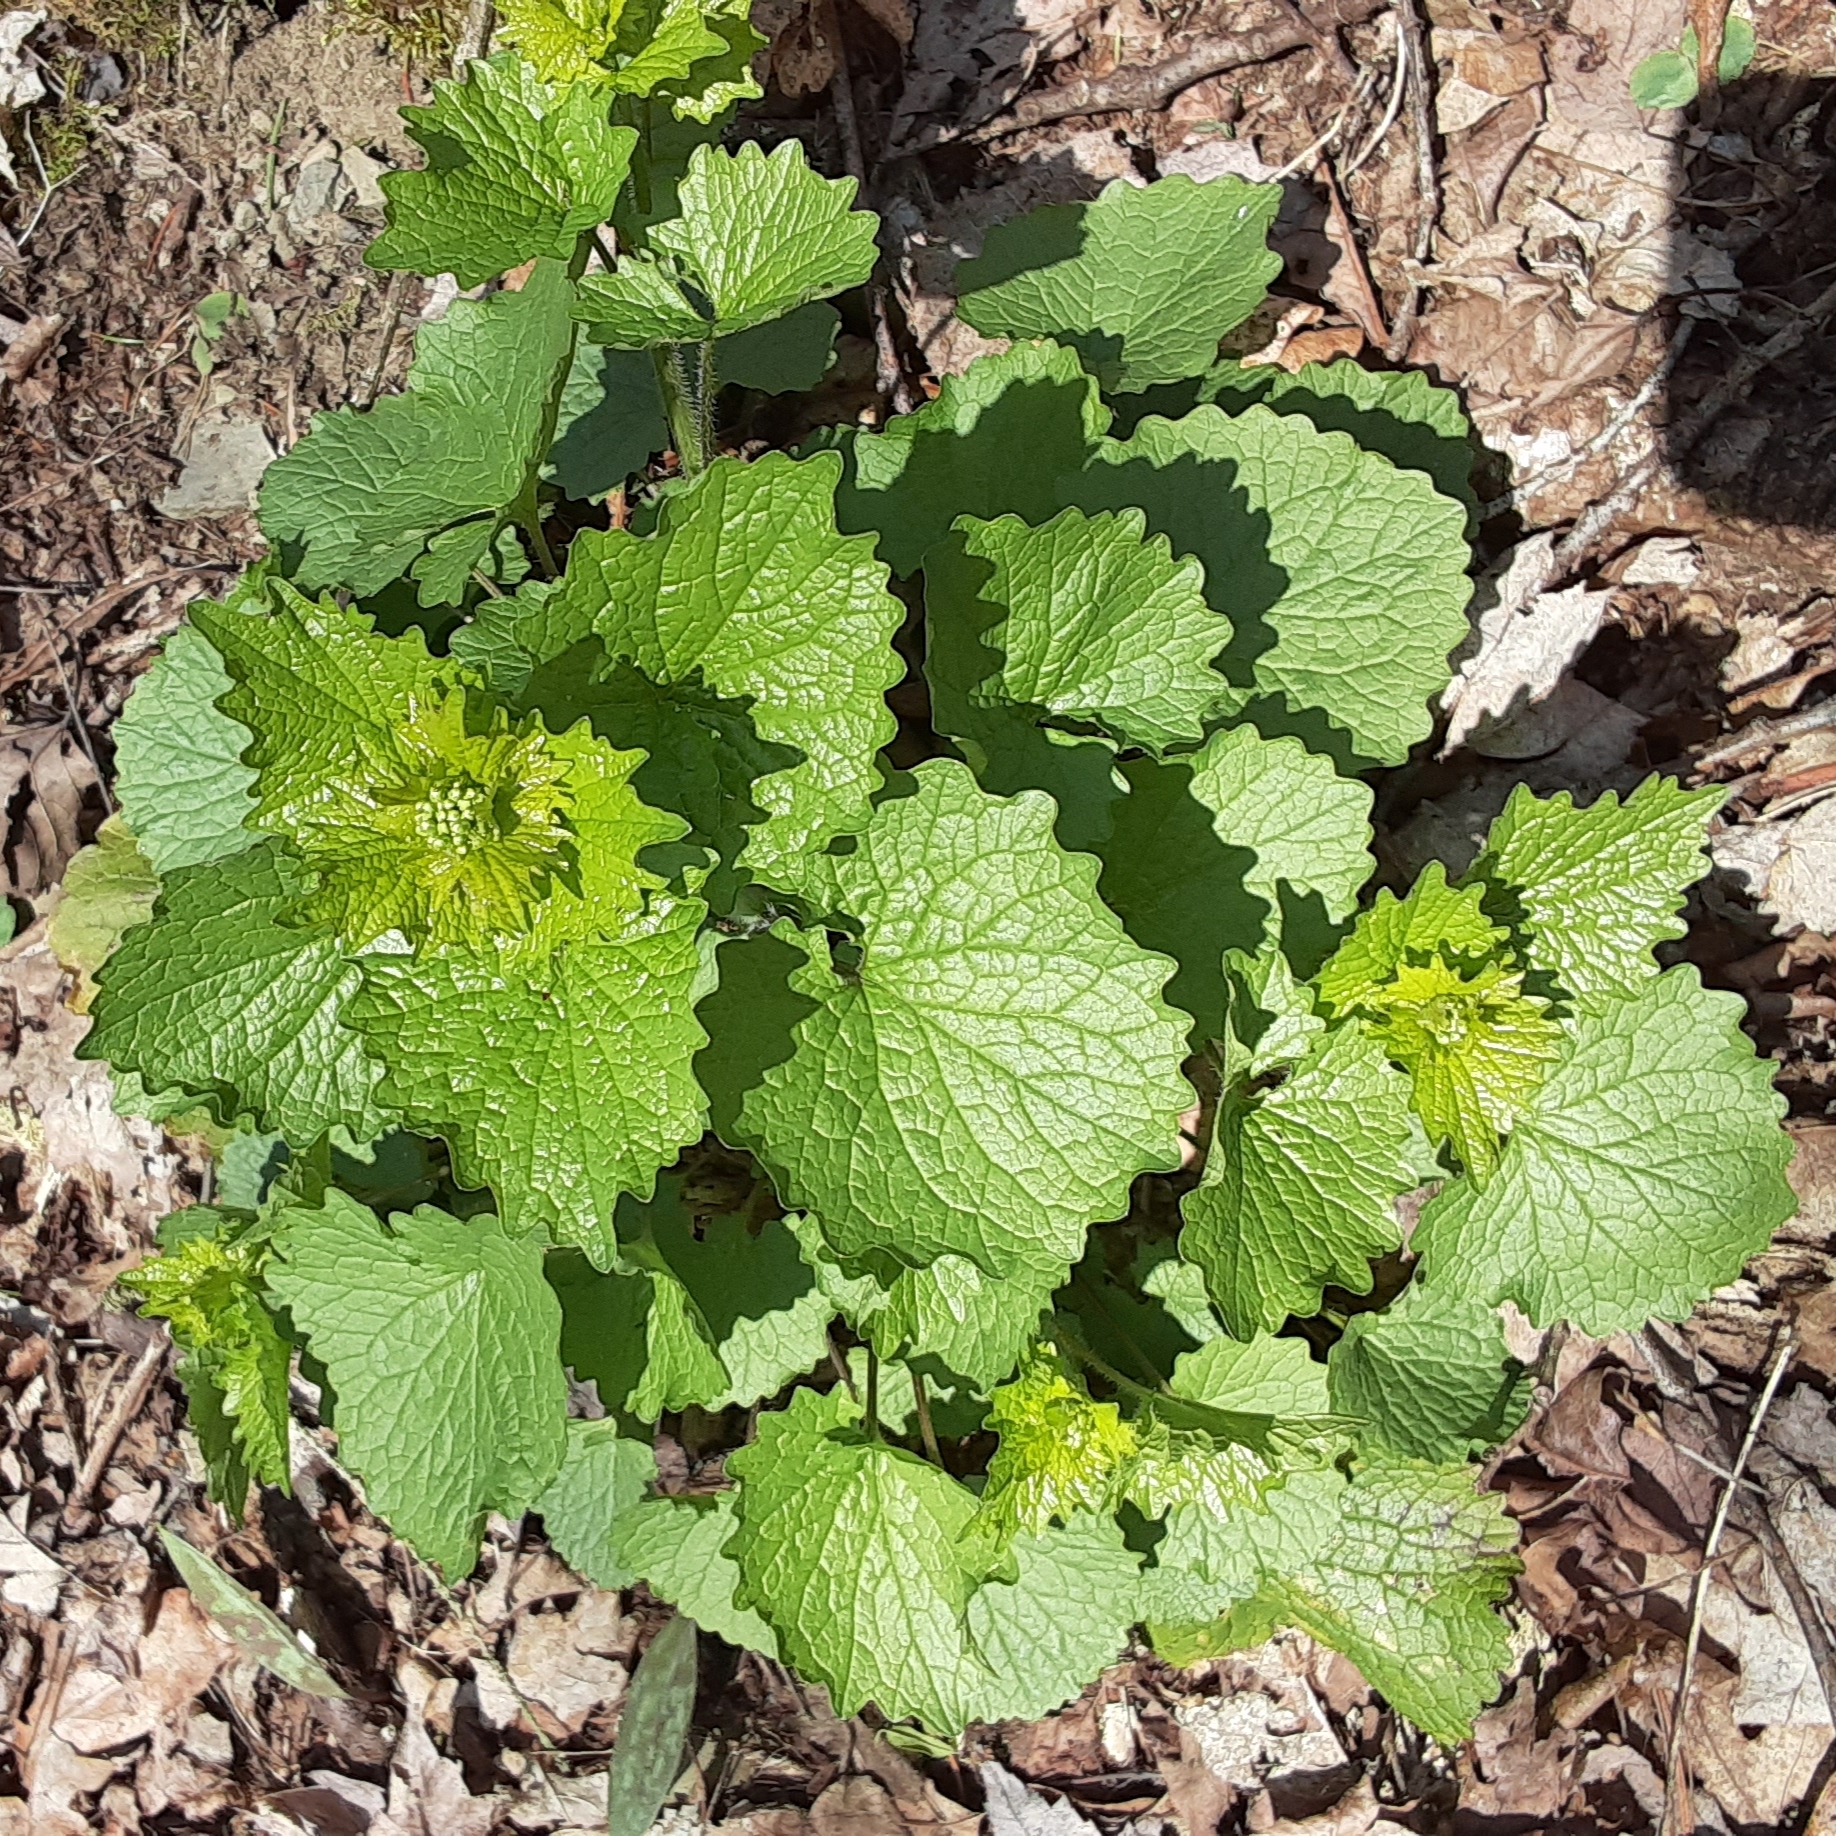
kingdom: Plantae
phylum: Tracheophyta
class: Magnoliopsida
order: Brassicales
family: Brassicaceae
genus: Alliaria
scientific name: Alliaria petiolata
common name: Garlic mustard
